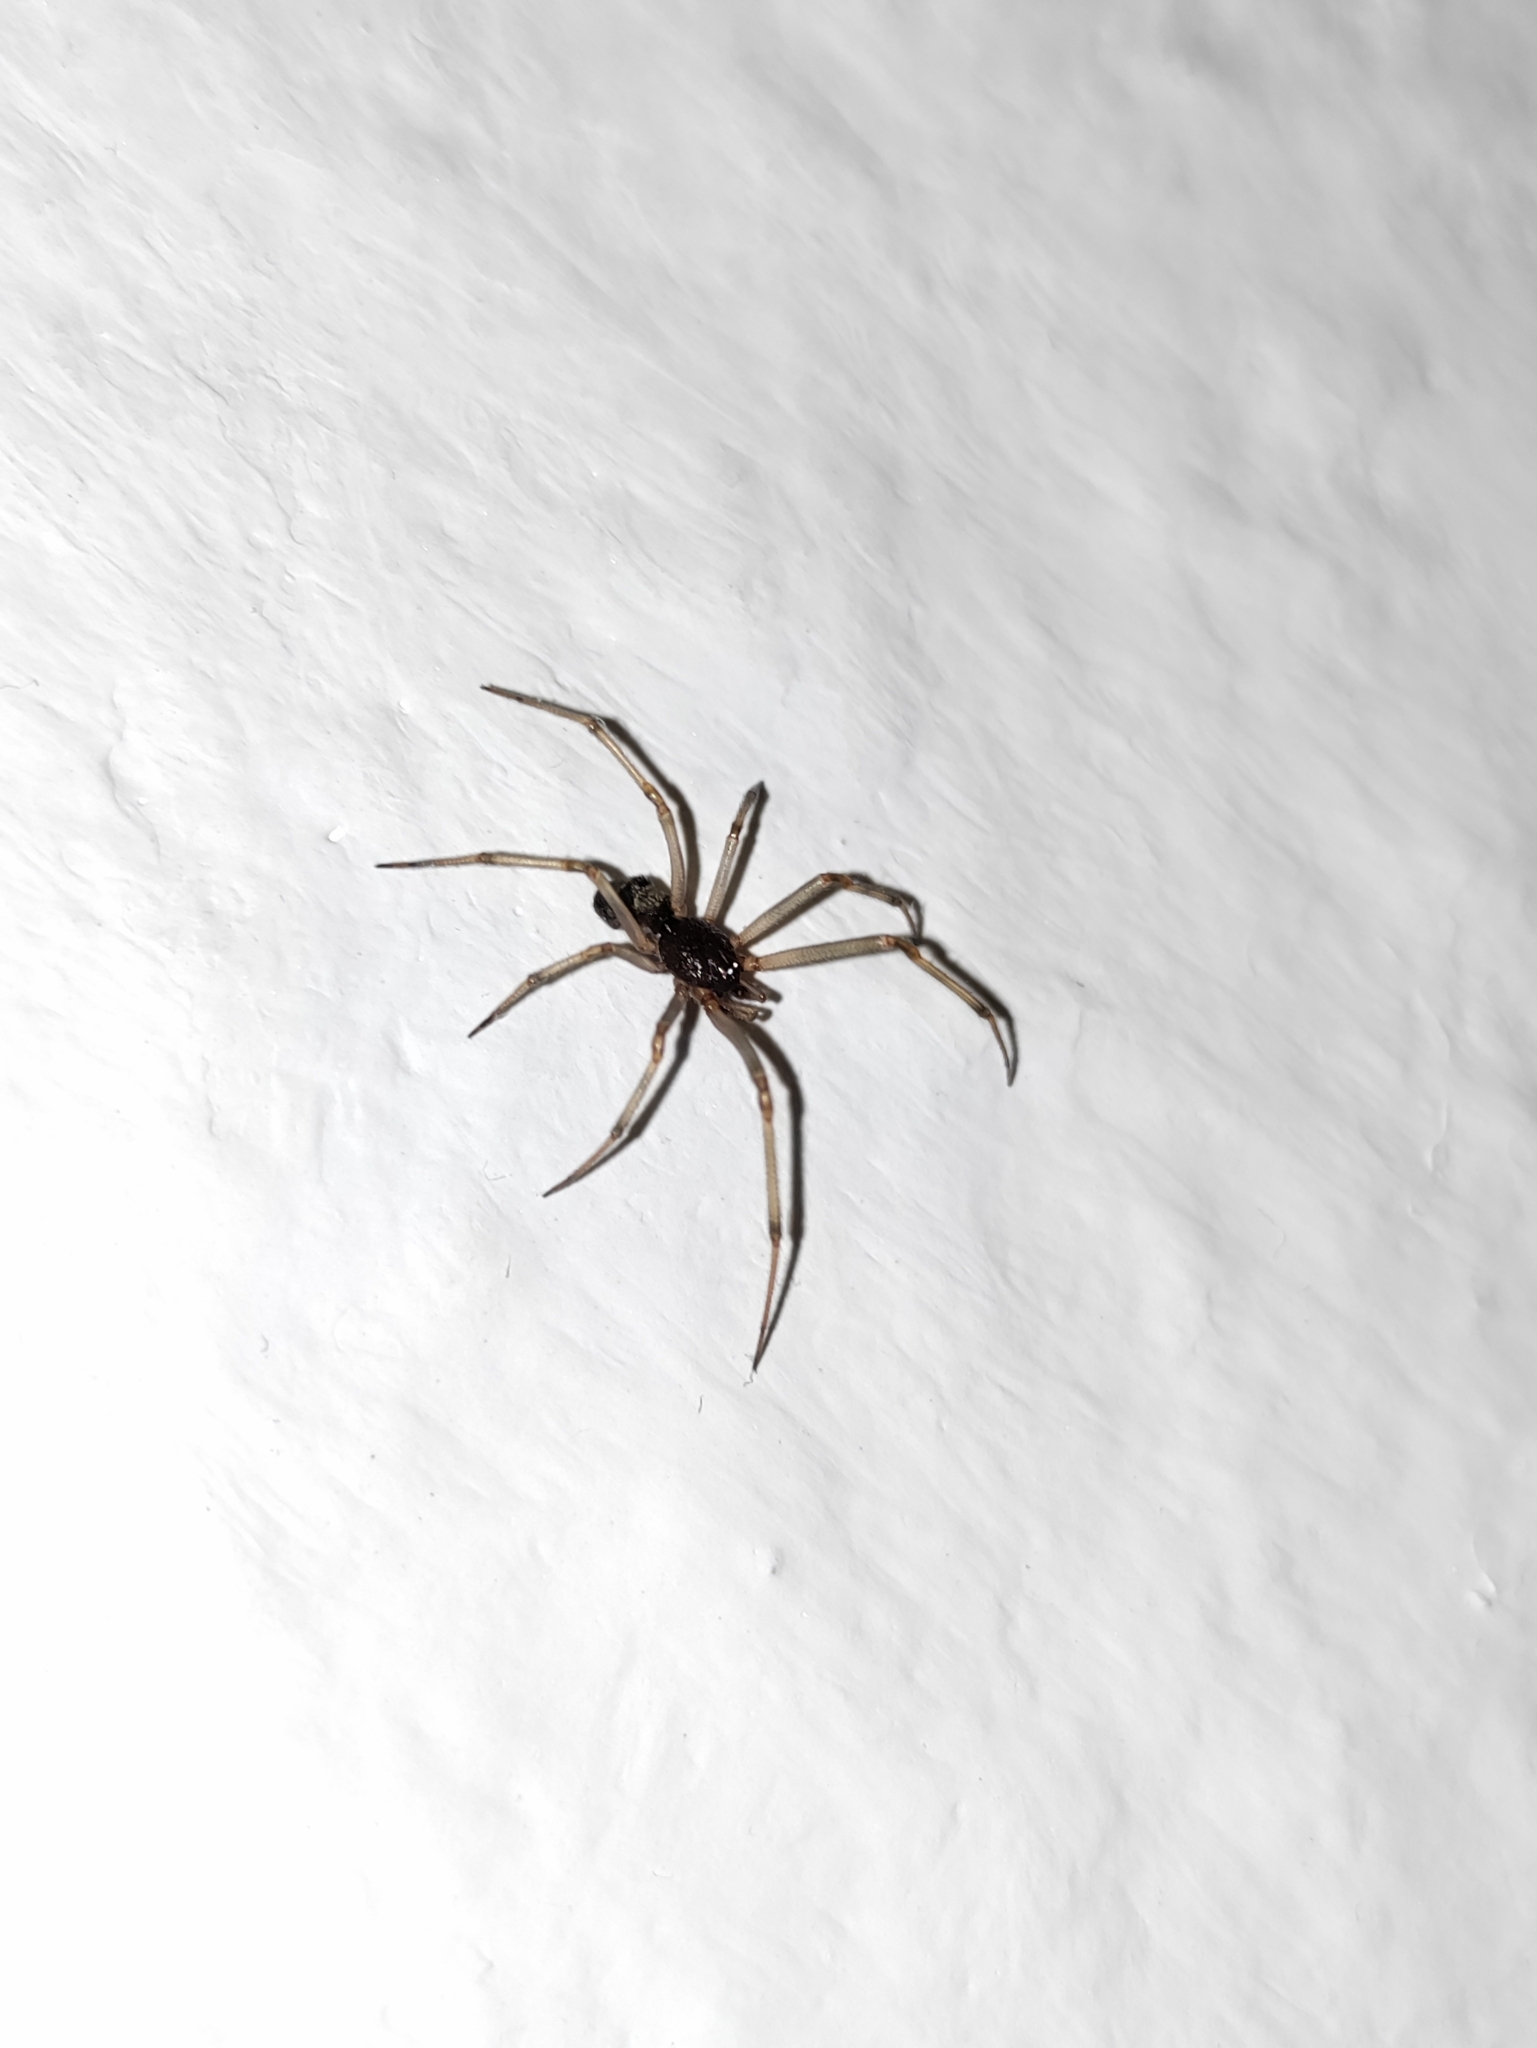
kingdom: Animalia
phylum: Arthropoda
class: Arachnida
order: Araneae
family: Theridiidae
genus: Steatoda
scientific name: Steatoda triangulosa
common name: Triangulate bud spider
